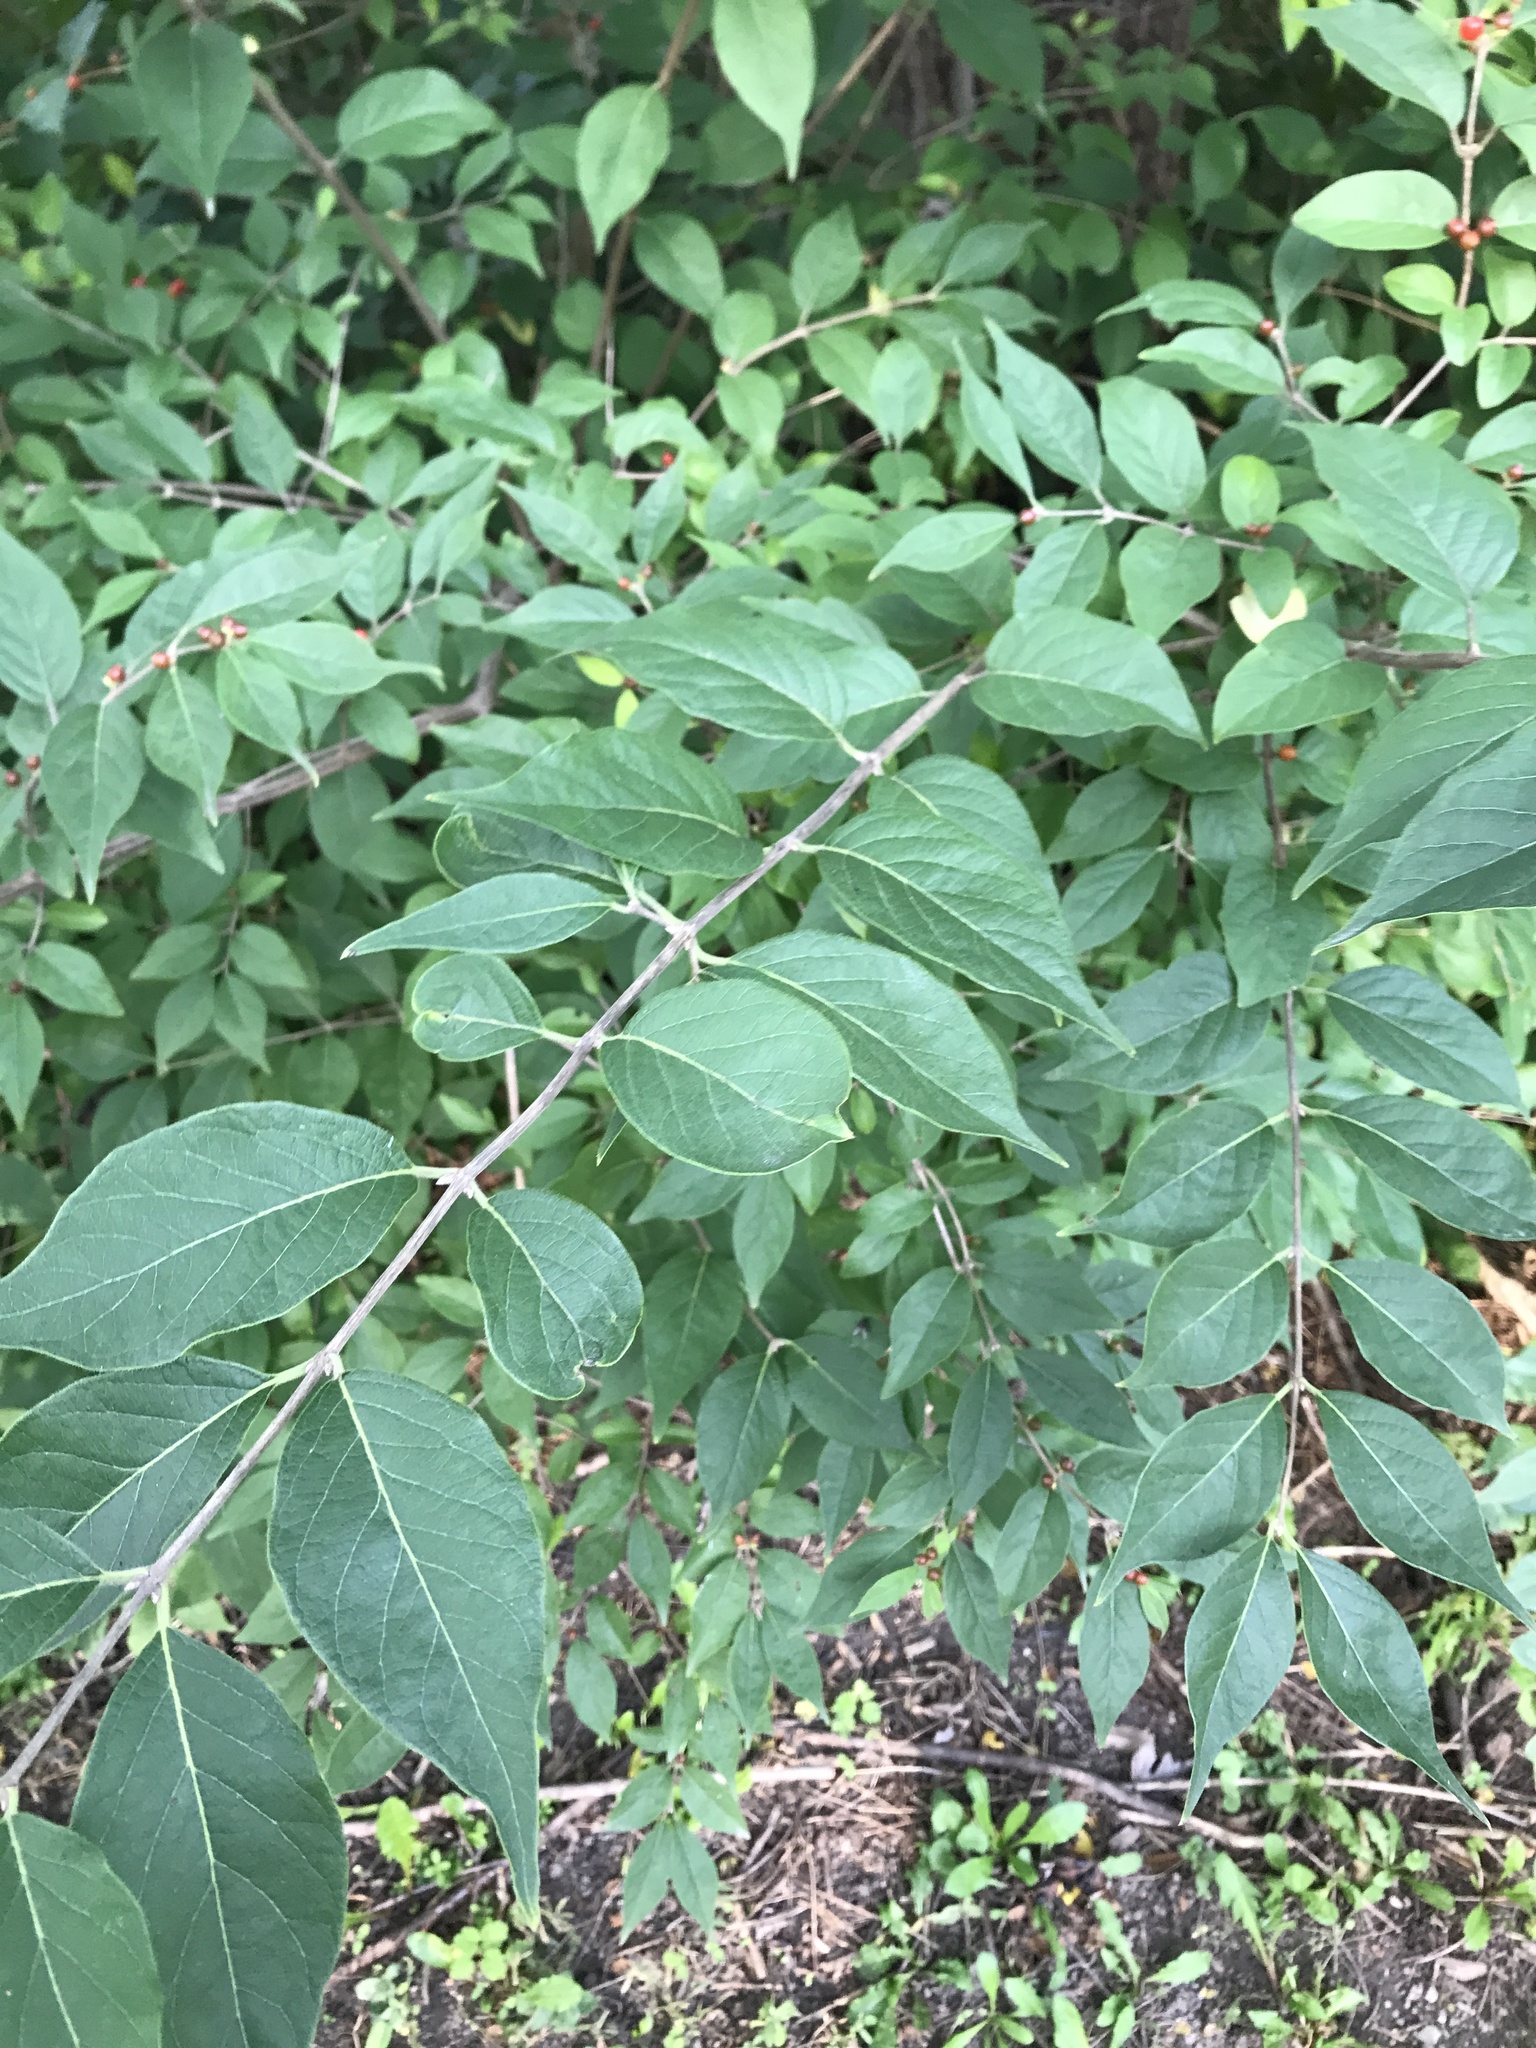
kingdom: Plantae
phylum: Tracheophyta
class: Magnoliopsida
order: Dipsacales
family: Caprifoliaceae
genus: Lonicera
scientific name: Lonicera maackii
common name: Amur honeysuckle
